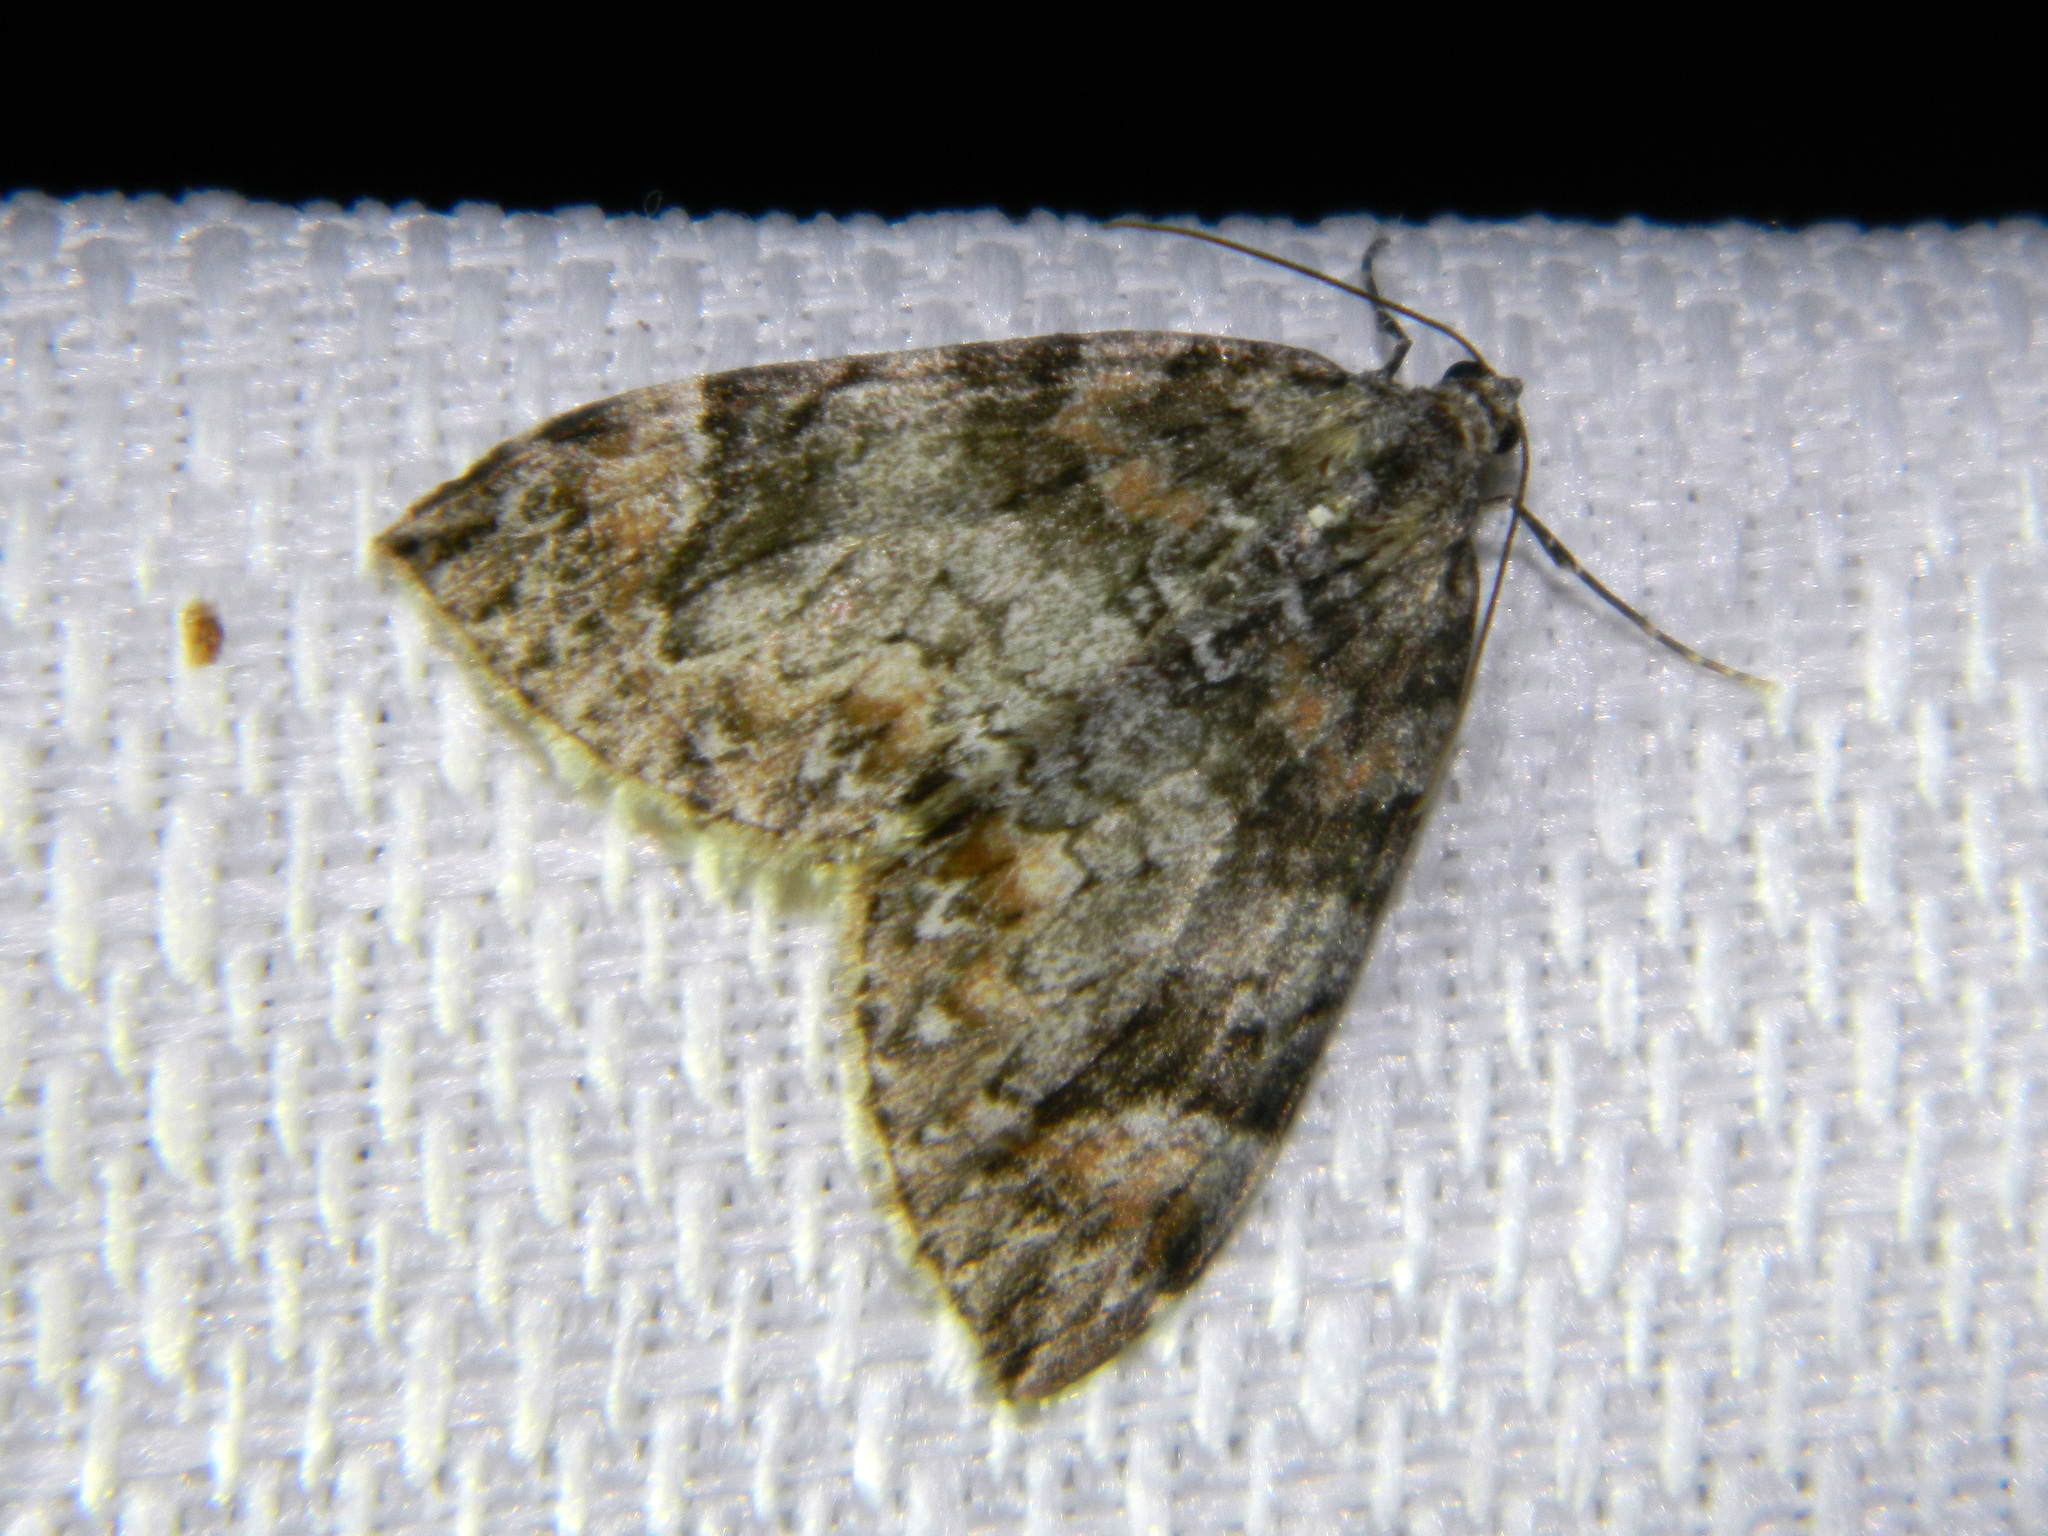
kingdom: Animalia
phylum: Arthropoda
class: Insecta
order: Lepidoptera
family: Geometridae
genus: Dysstroma
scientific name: Dysstroma citrata
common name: Dark marbled carpet
